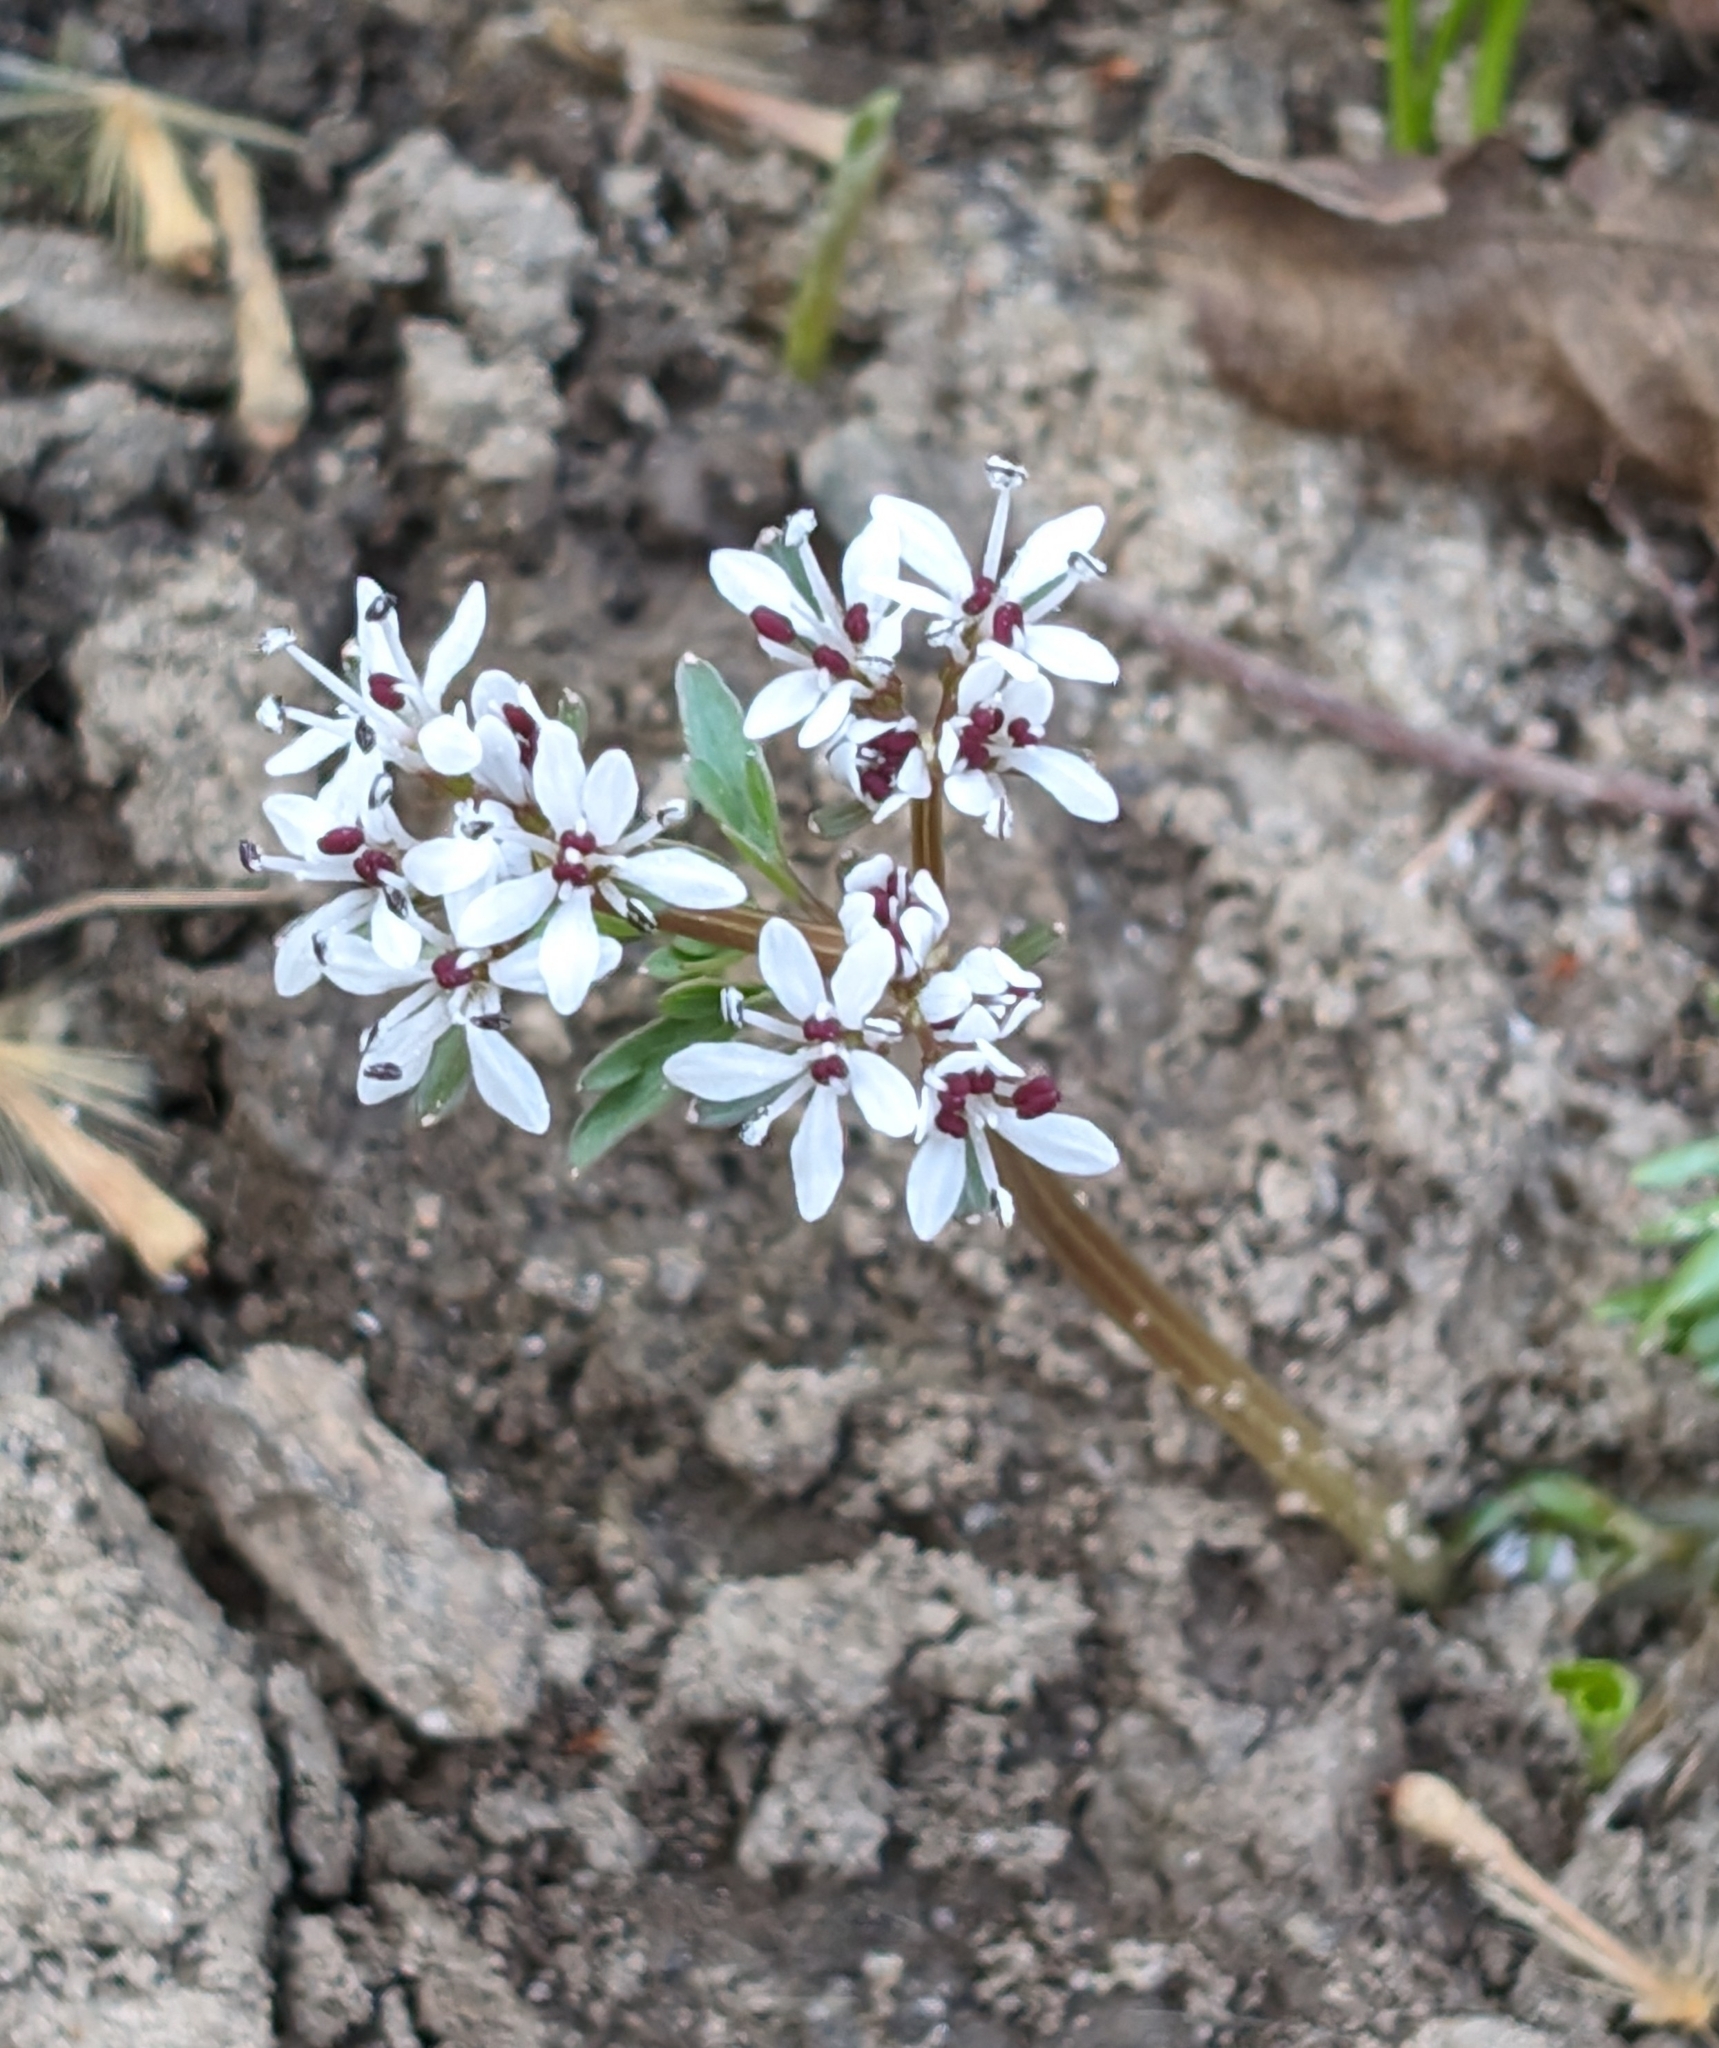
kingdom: Plantae
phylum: Tracheophyta
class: Magnoliopsida
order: Apiales
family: Apiaceae
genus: Erigenia
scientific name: Erigenia bulbosa
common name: Pepper-and-salt
